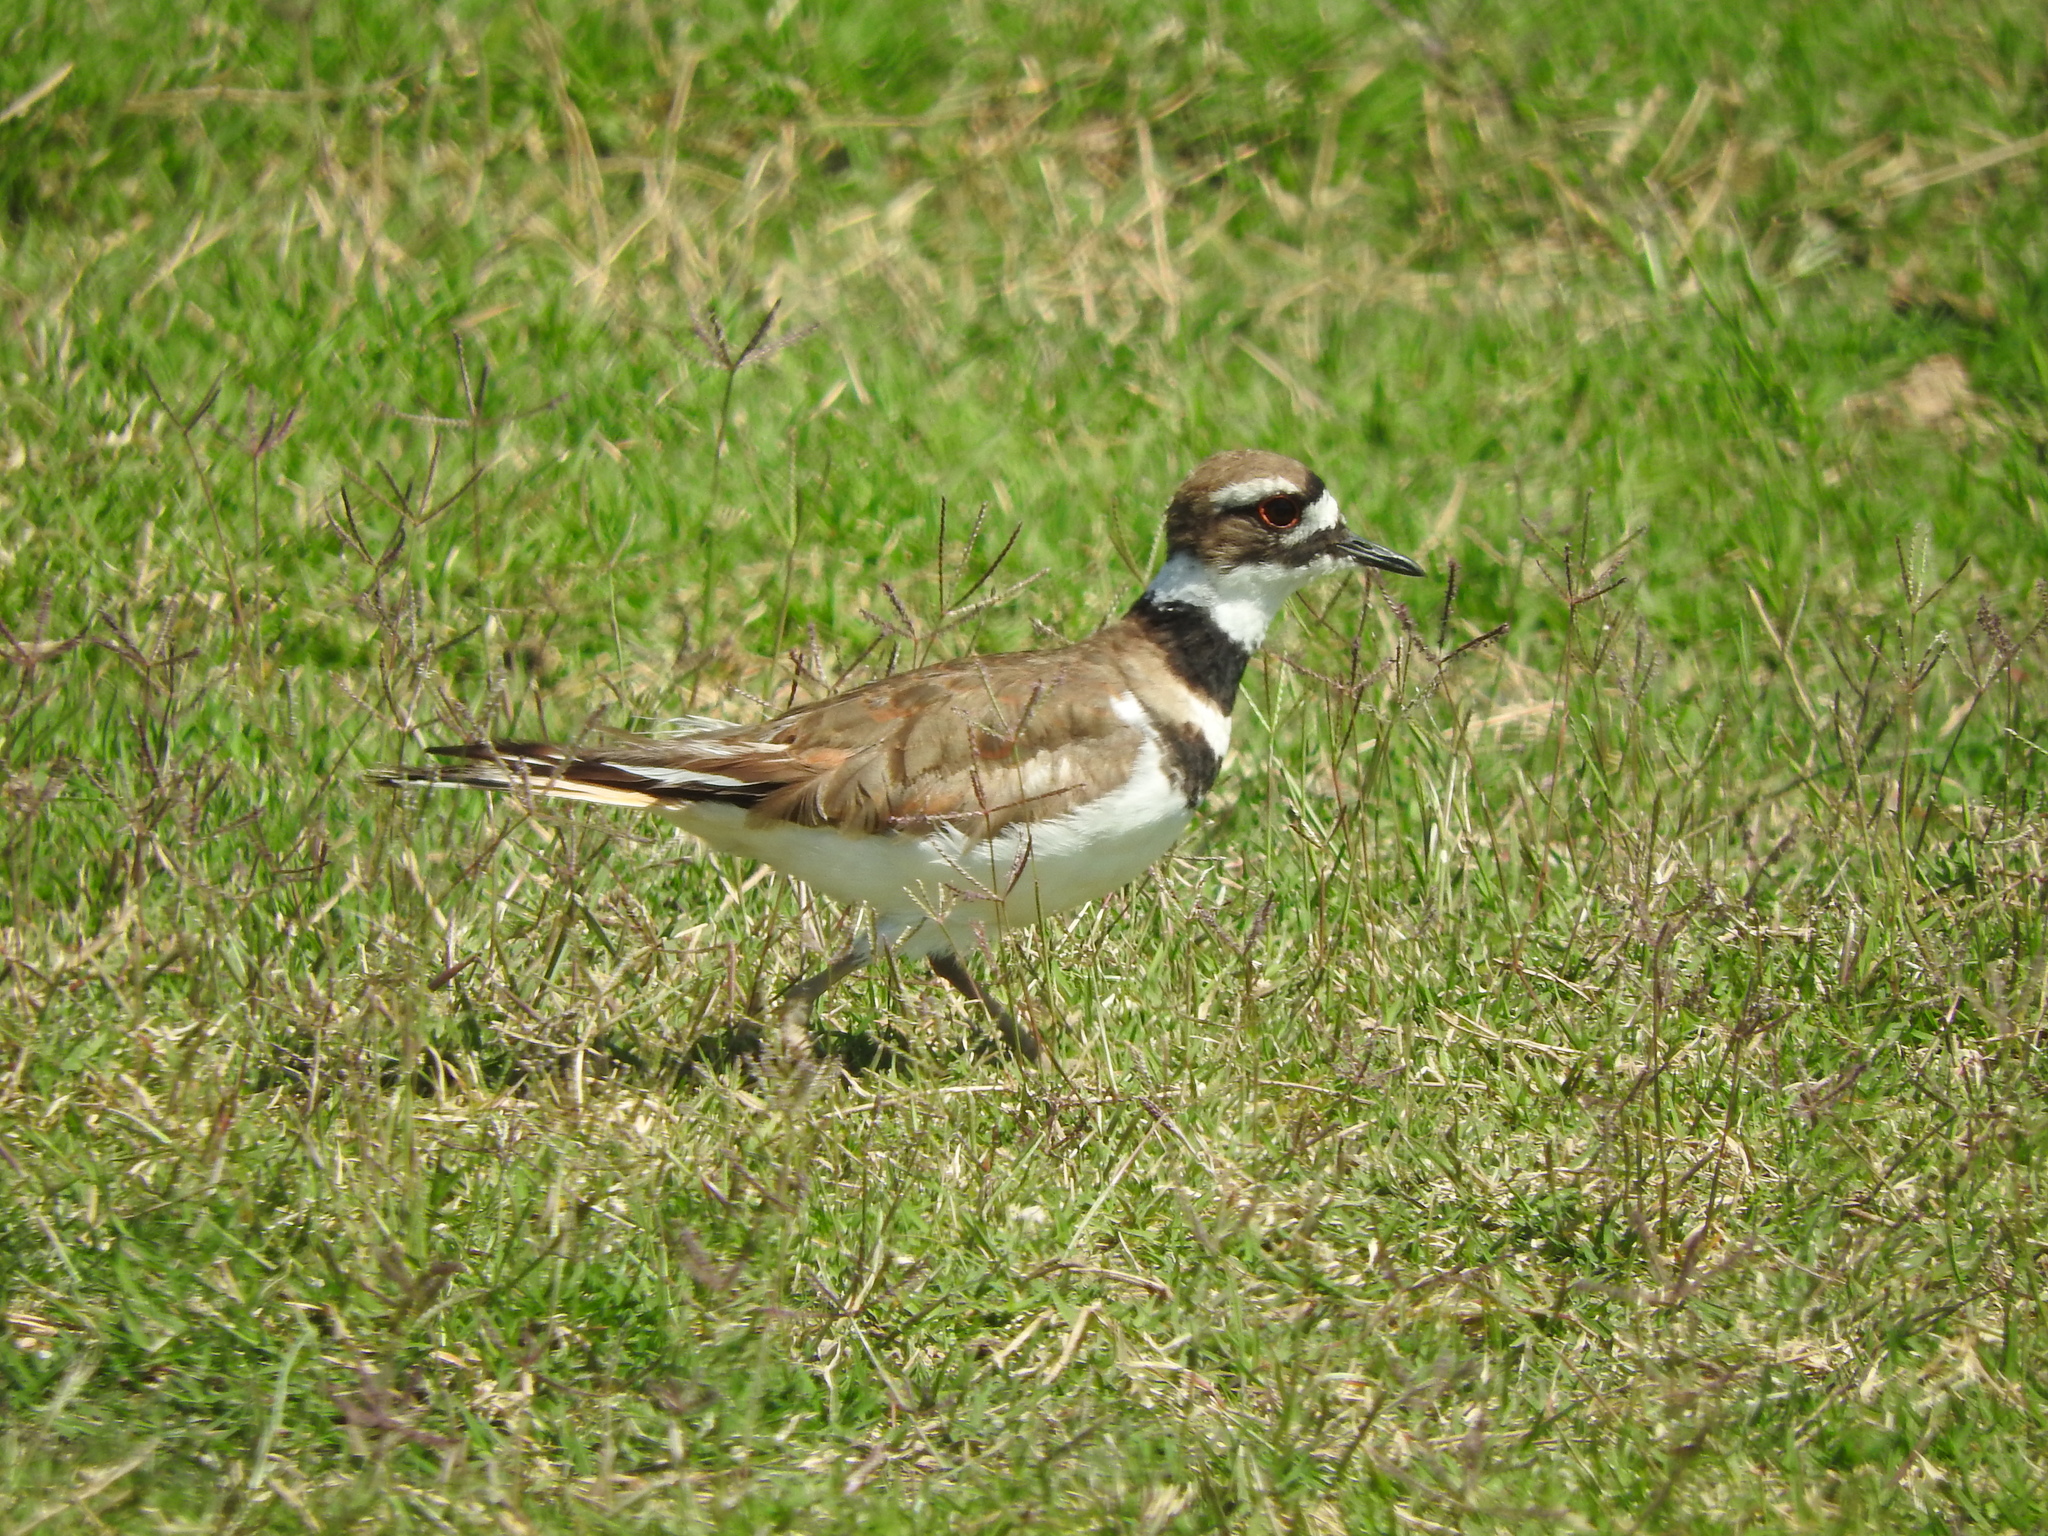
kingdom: Animalia
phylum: Chordata
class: Aves
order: Charadriiformes
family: Charadriidae
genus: Charadrius
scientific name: Charadrius vociferus
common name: Killdeer
